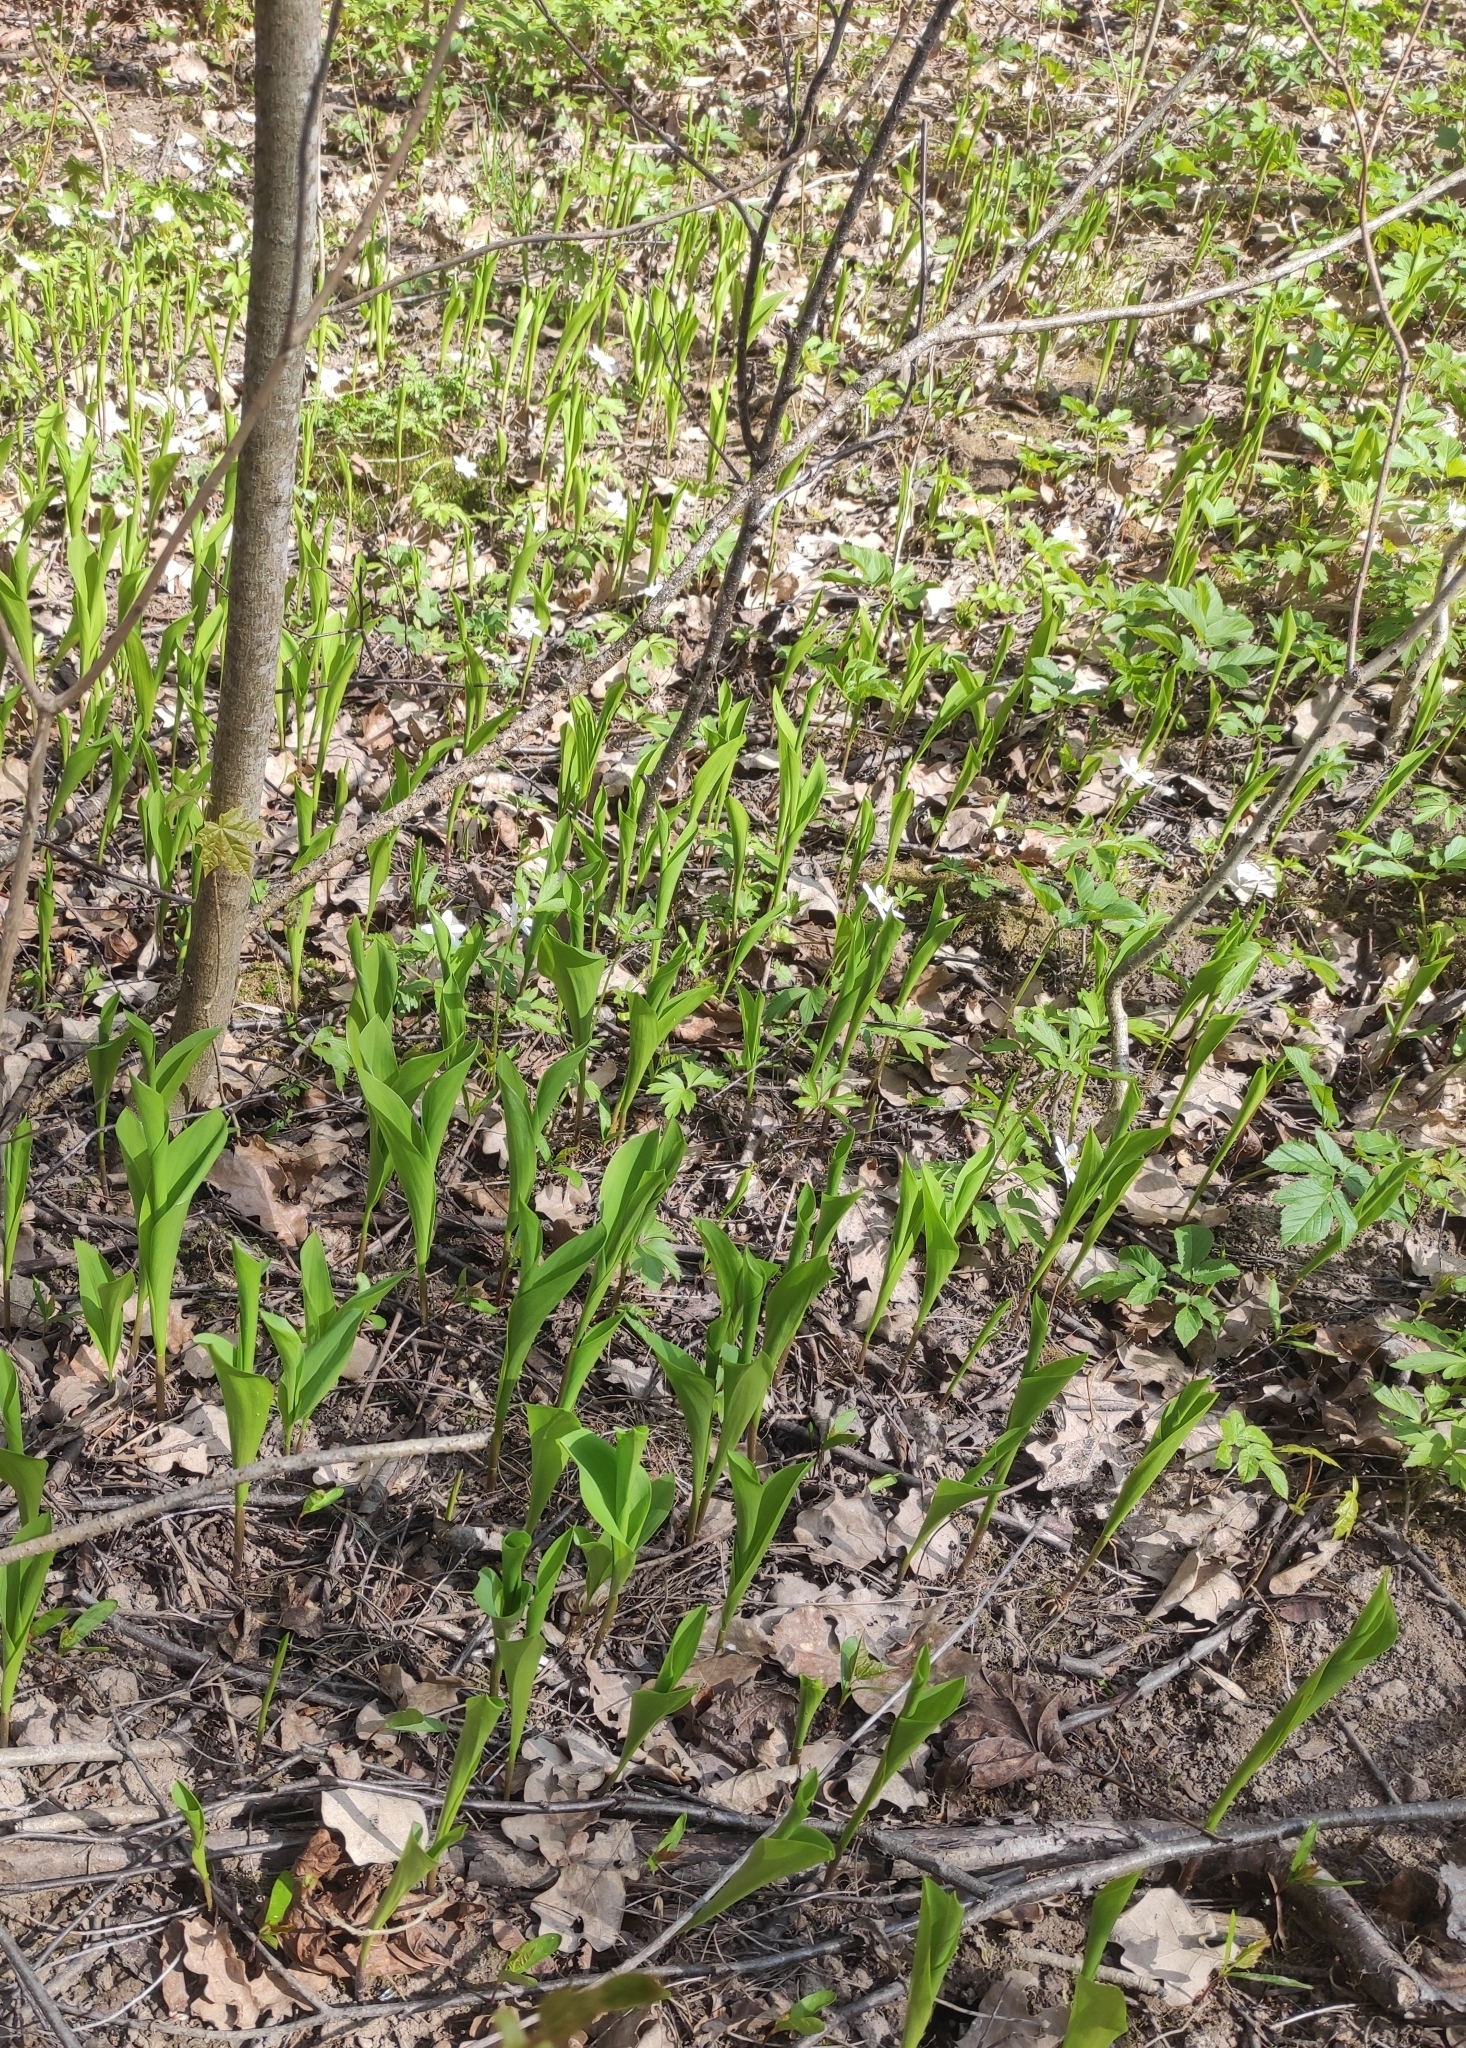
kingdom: Plantae
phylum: Tracheophyta
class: Liliopsida
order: Asparagales
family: Asparagaceae
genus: Convallaria
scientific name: Convallaria majalis
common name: Lily-of-the-valley
